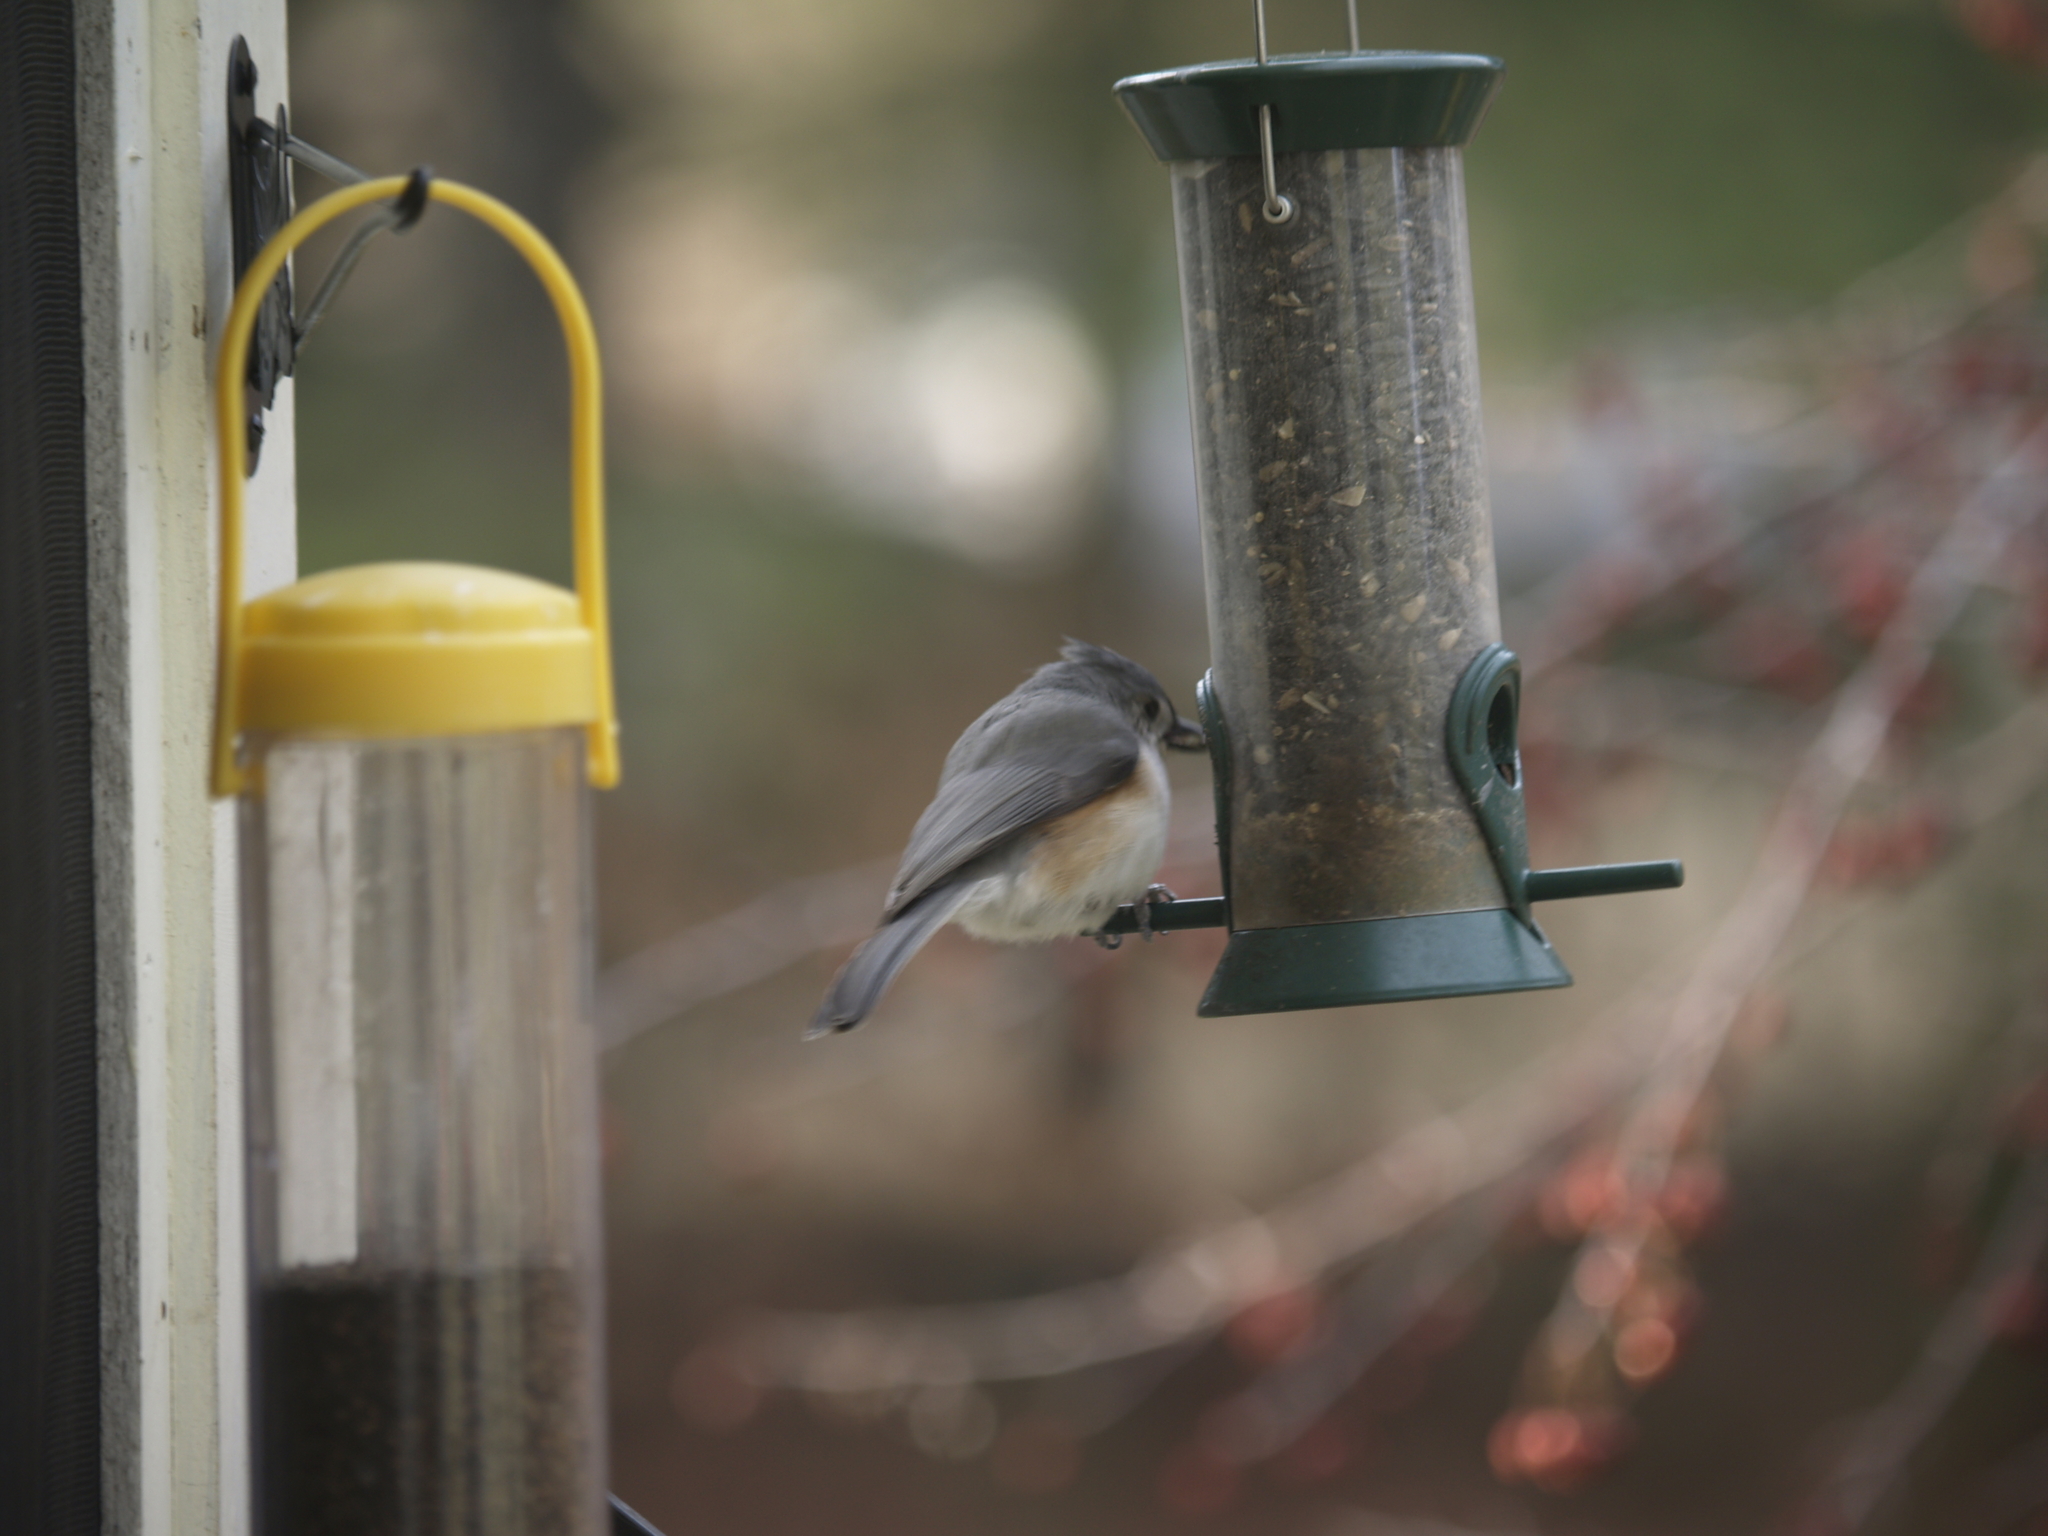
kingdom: Animalia
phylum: Chordata
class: Aves
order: Passeriformes
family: Paridae
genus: Baeolophus
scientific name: Baeolophus bicolor
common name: Tufted titmouse
